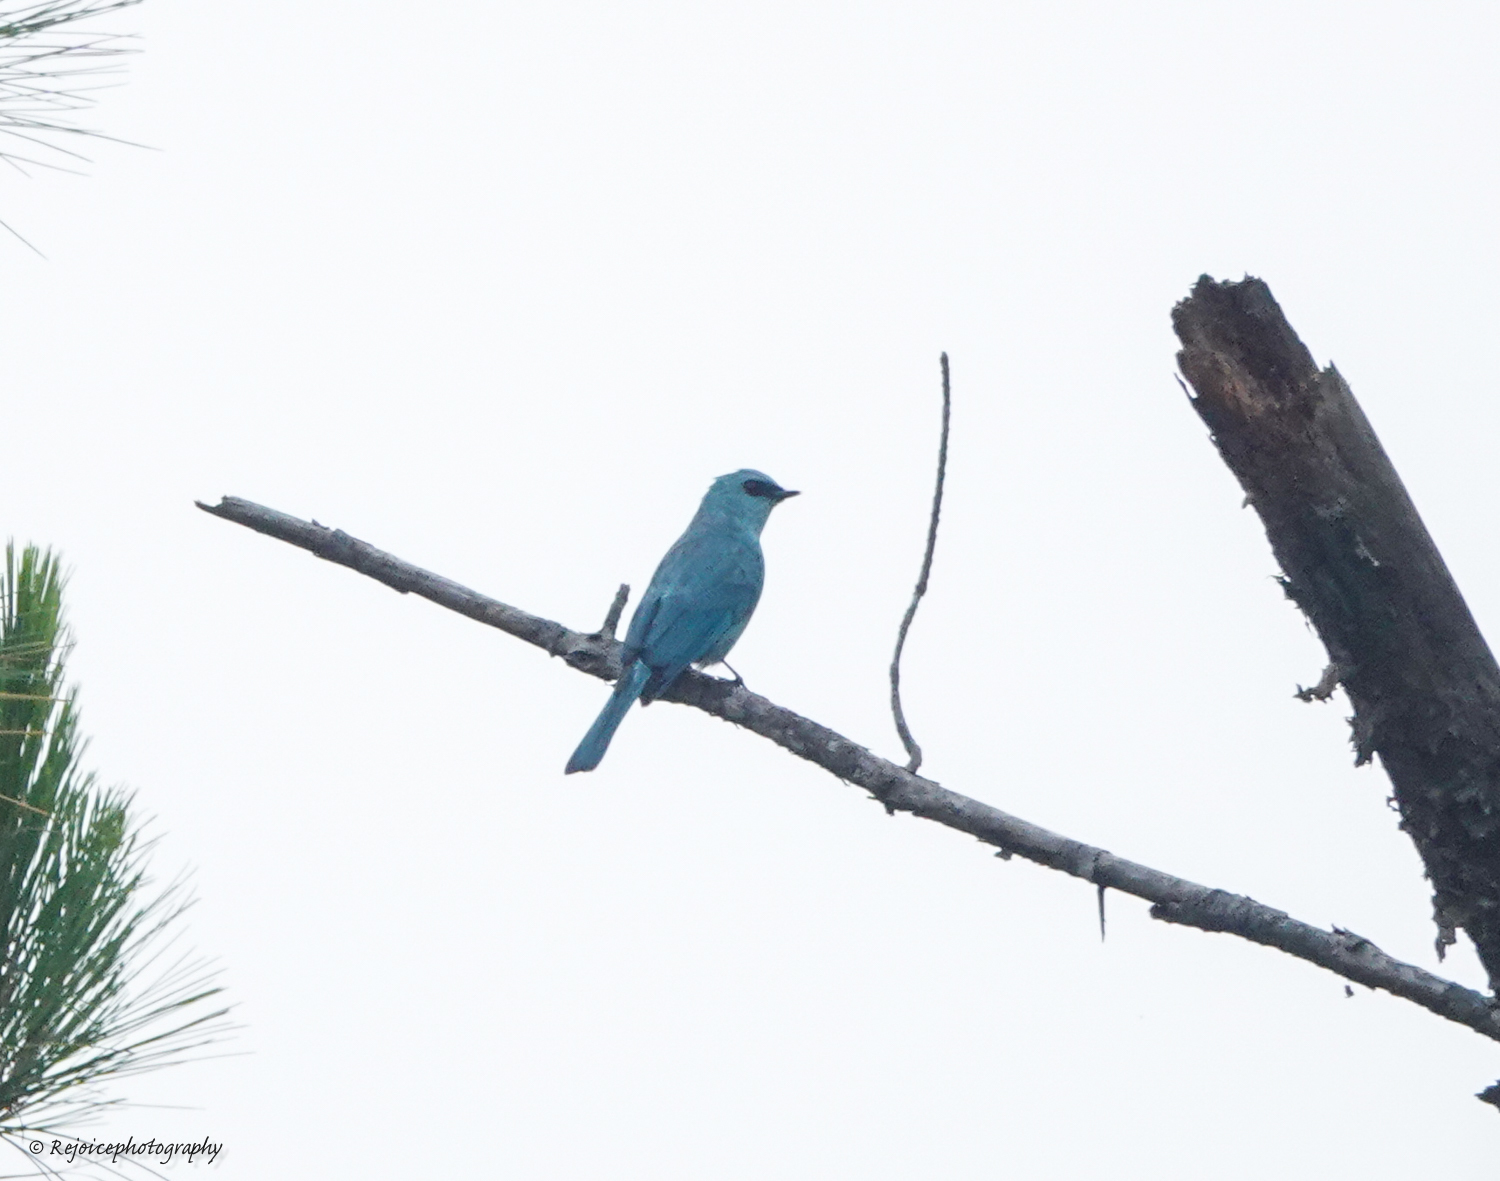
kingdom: Animalia
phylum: Chordata
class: Aves
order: Passeriformes
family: Muscicapidae
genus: Eumyias
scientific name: Eumyias thalassinus
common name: Verditer flycatcher
